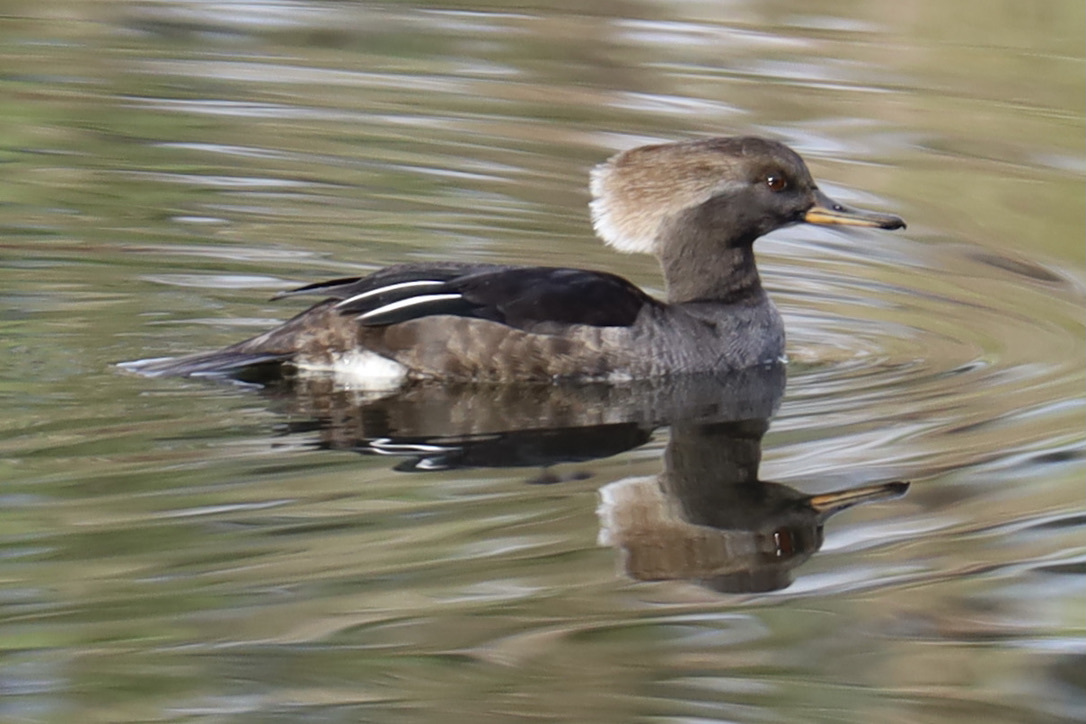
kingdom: Animalia
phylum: Chordata
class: Aves
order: Anseriformes
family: Anatidae
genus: Lophodytes
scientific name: Lophodytes cucullatus
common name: Hooded merganser
